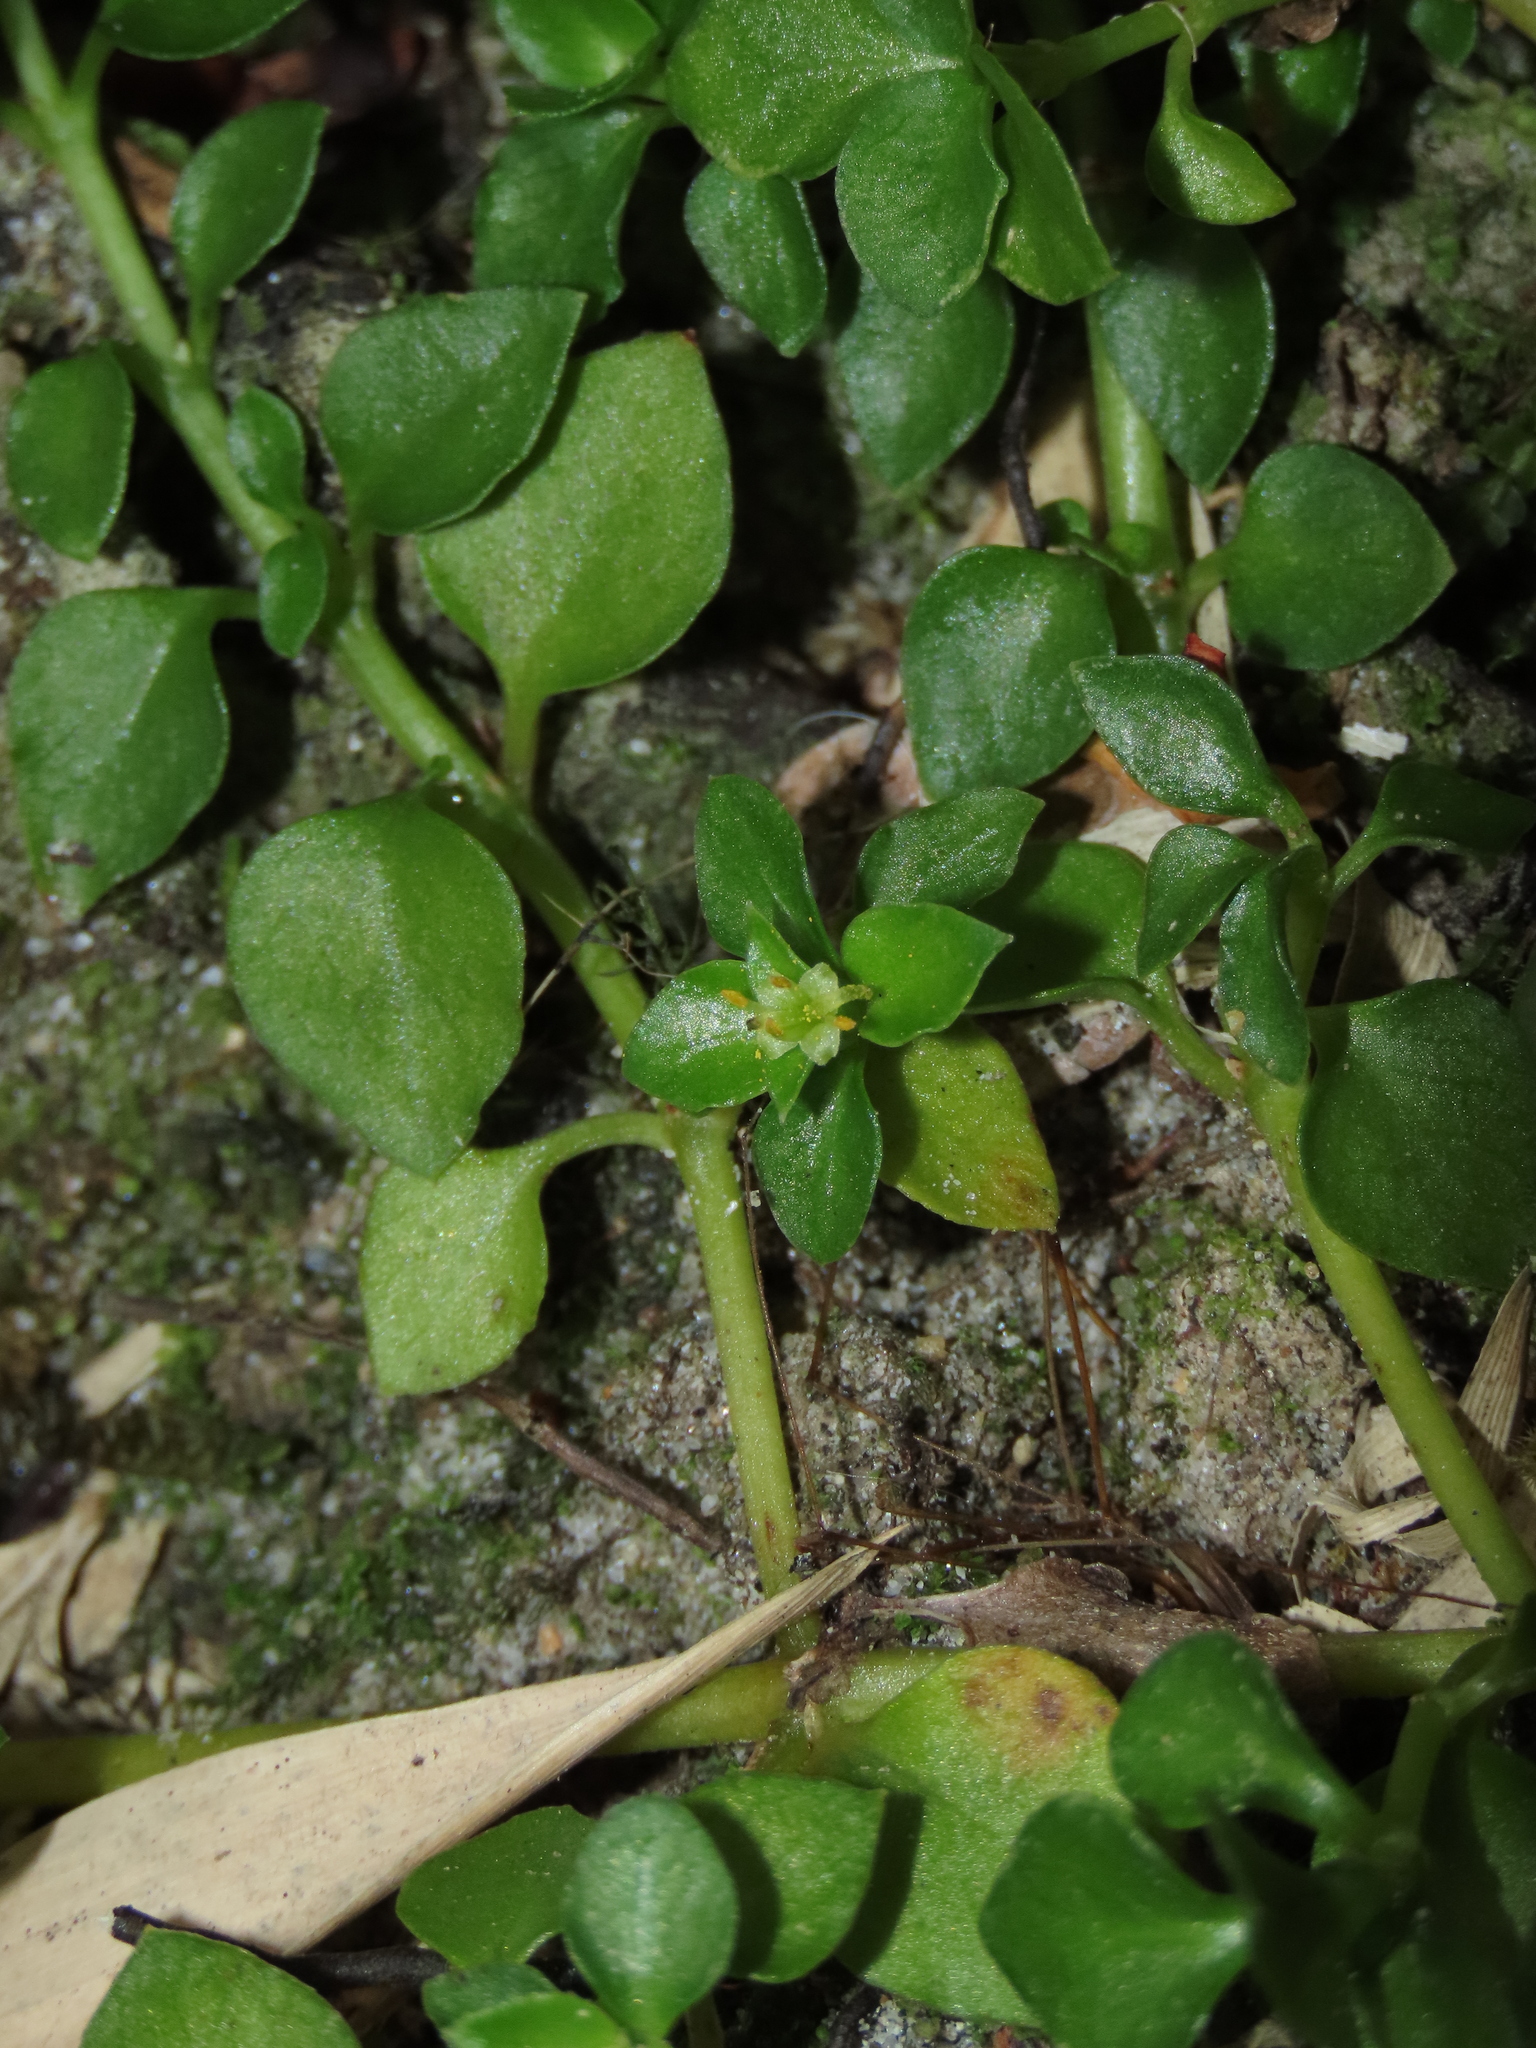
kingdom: Plantae
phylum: Tracheophyta
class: Magnoliopsida
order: Gentianales
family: Rubiaceae
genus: Nertera
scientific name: Nertera granadensis
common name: Beadplant
